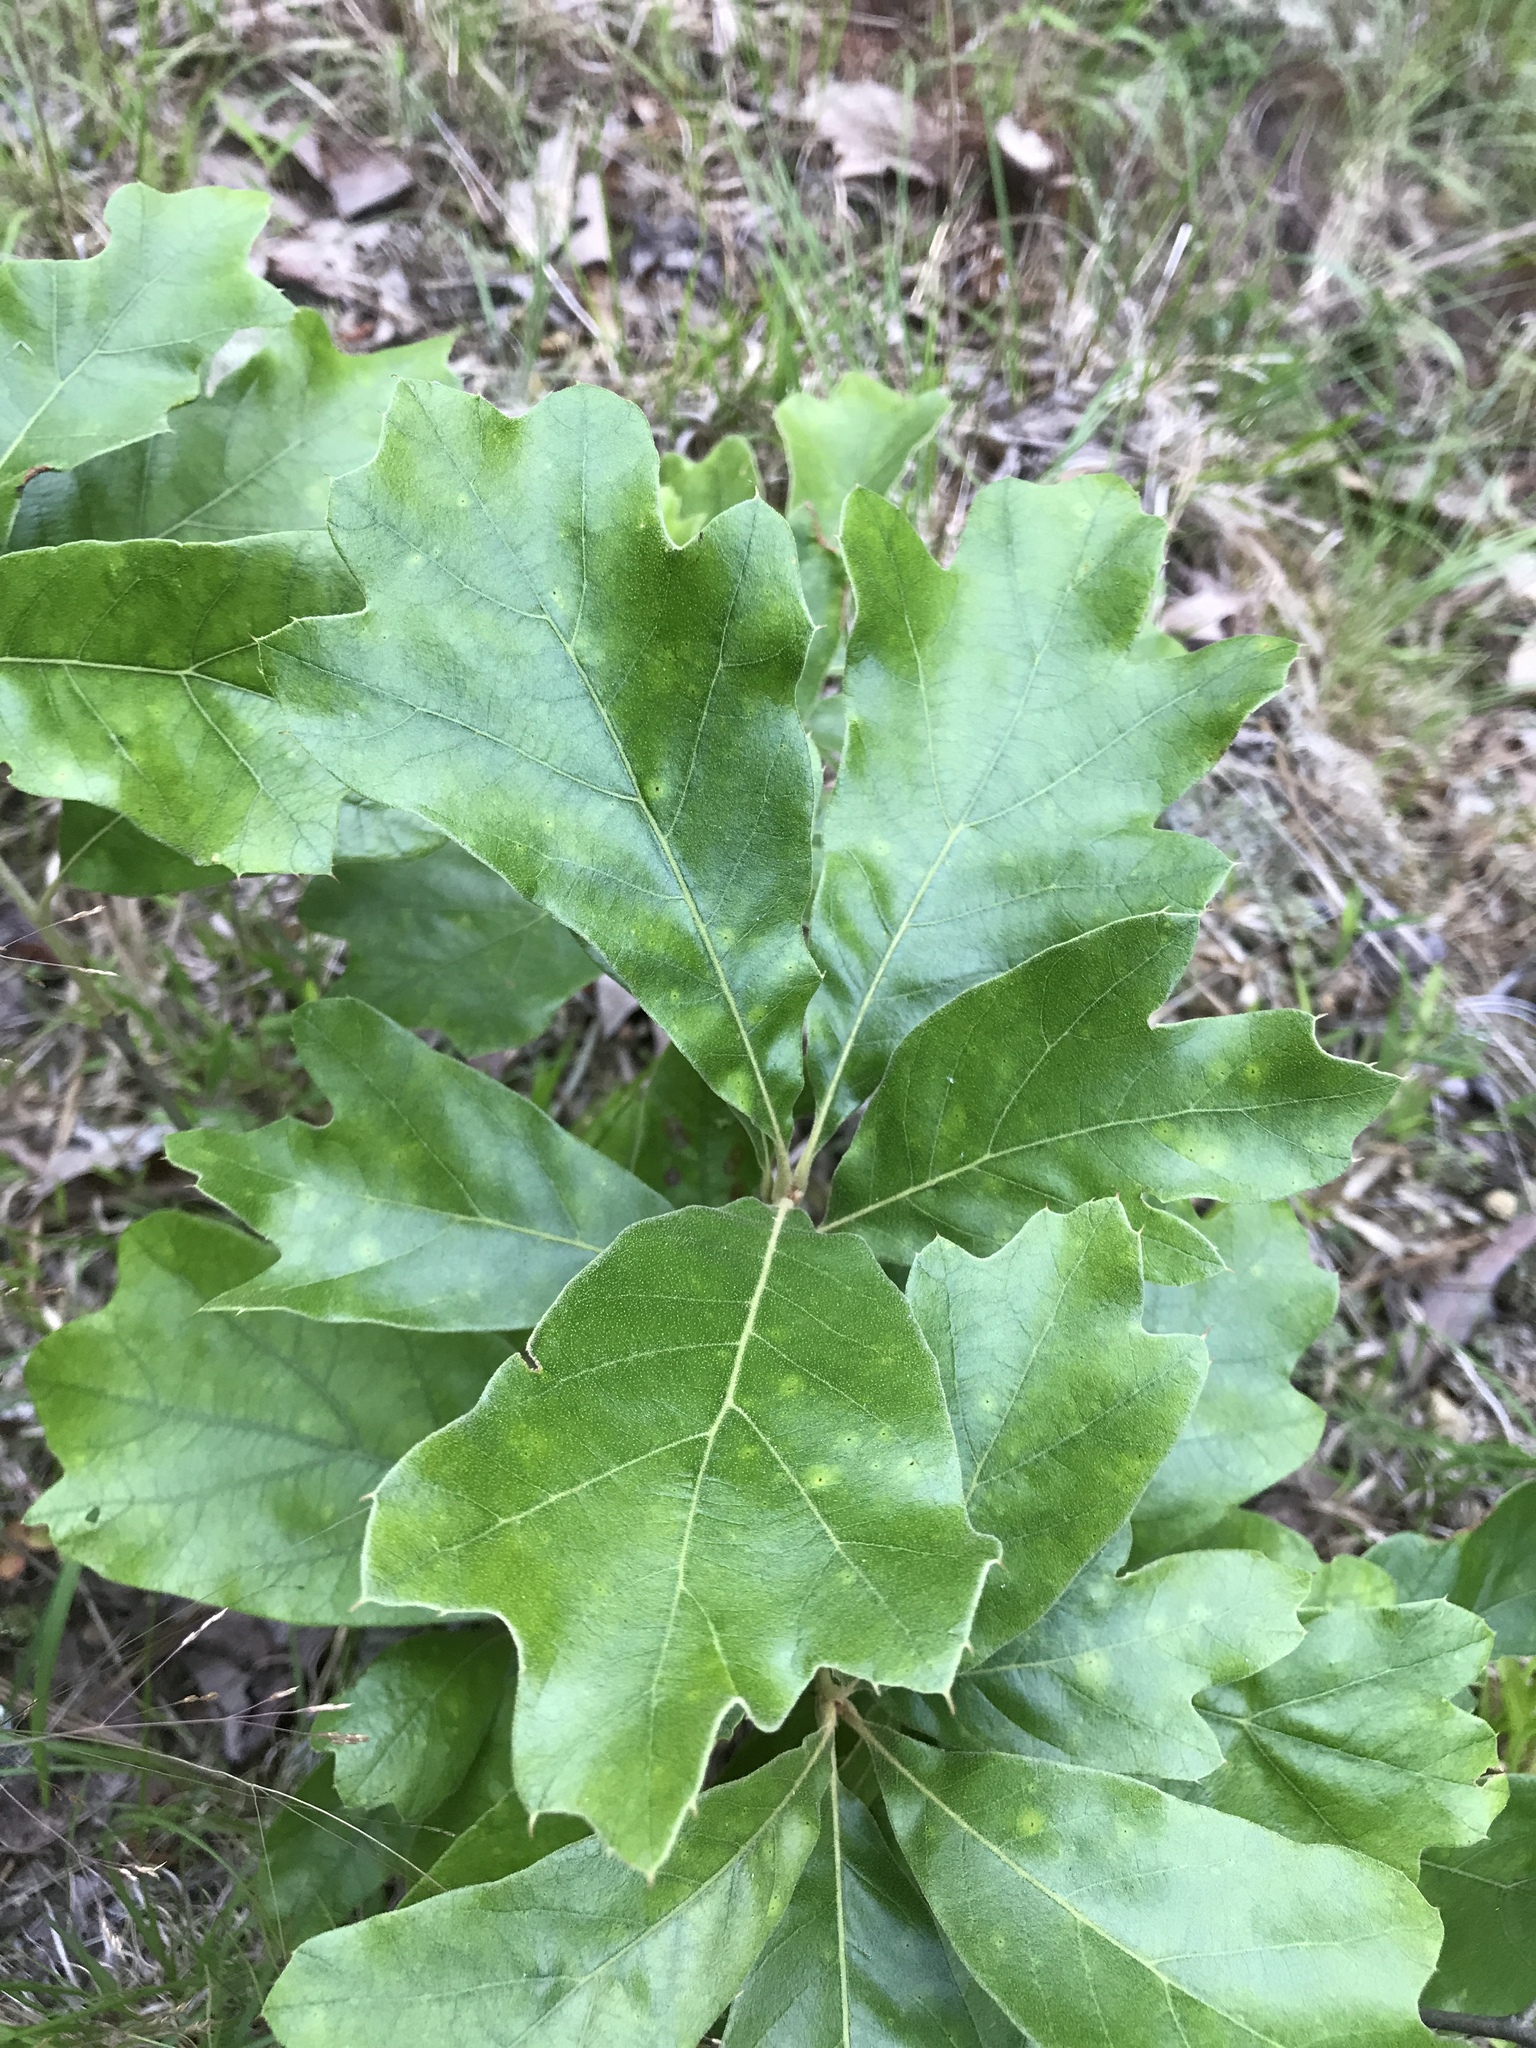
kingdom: Plantae
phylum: Tracheophyta
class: Magnoliopsida
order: Fagales
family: Fagaceae
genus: Quercus
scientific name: Quercus falcata
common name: Southern red oak
